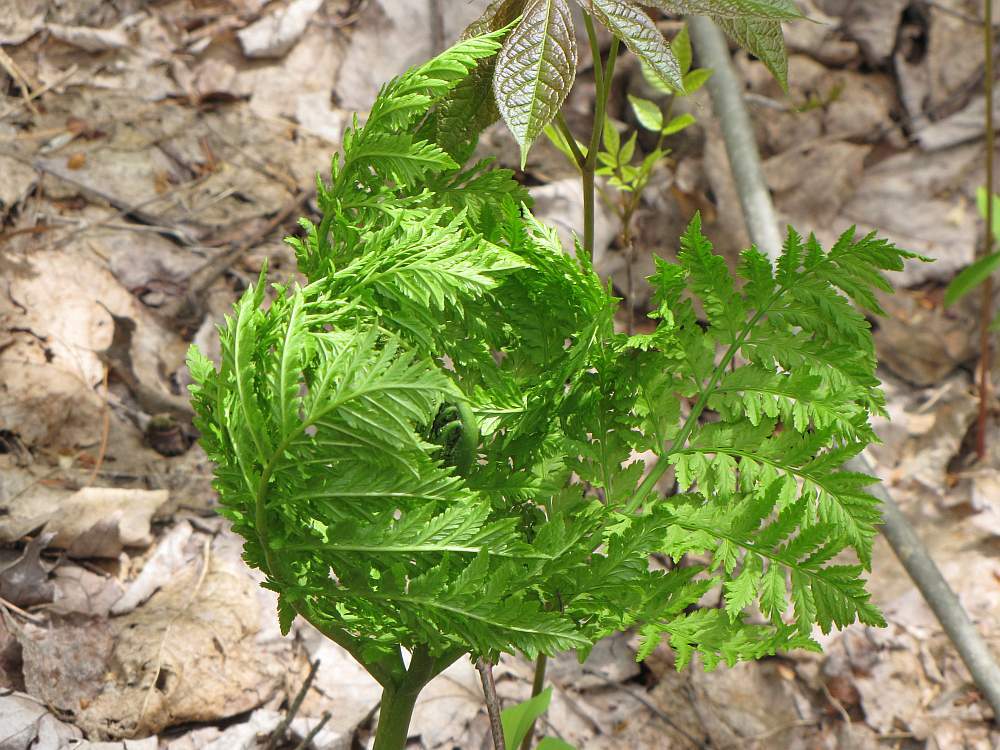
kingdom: Plantae
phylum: Tracheophyta
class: Polypodiopsida
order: Ophioglossales
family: Ophioglossaceae
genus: Botrypus
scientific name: Botrypus virginianus
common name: Common grapefern
